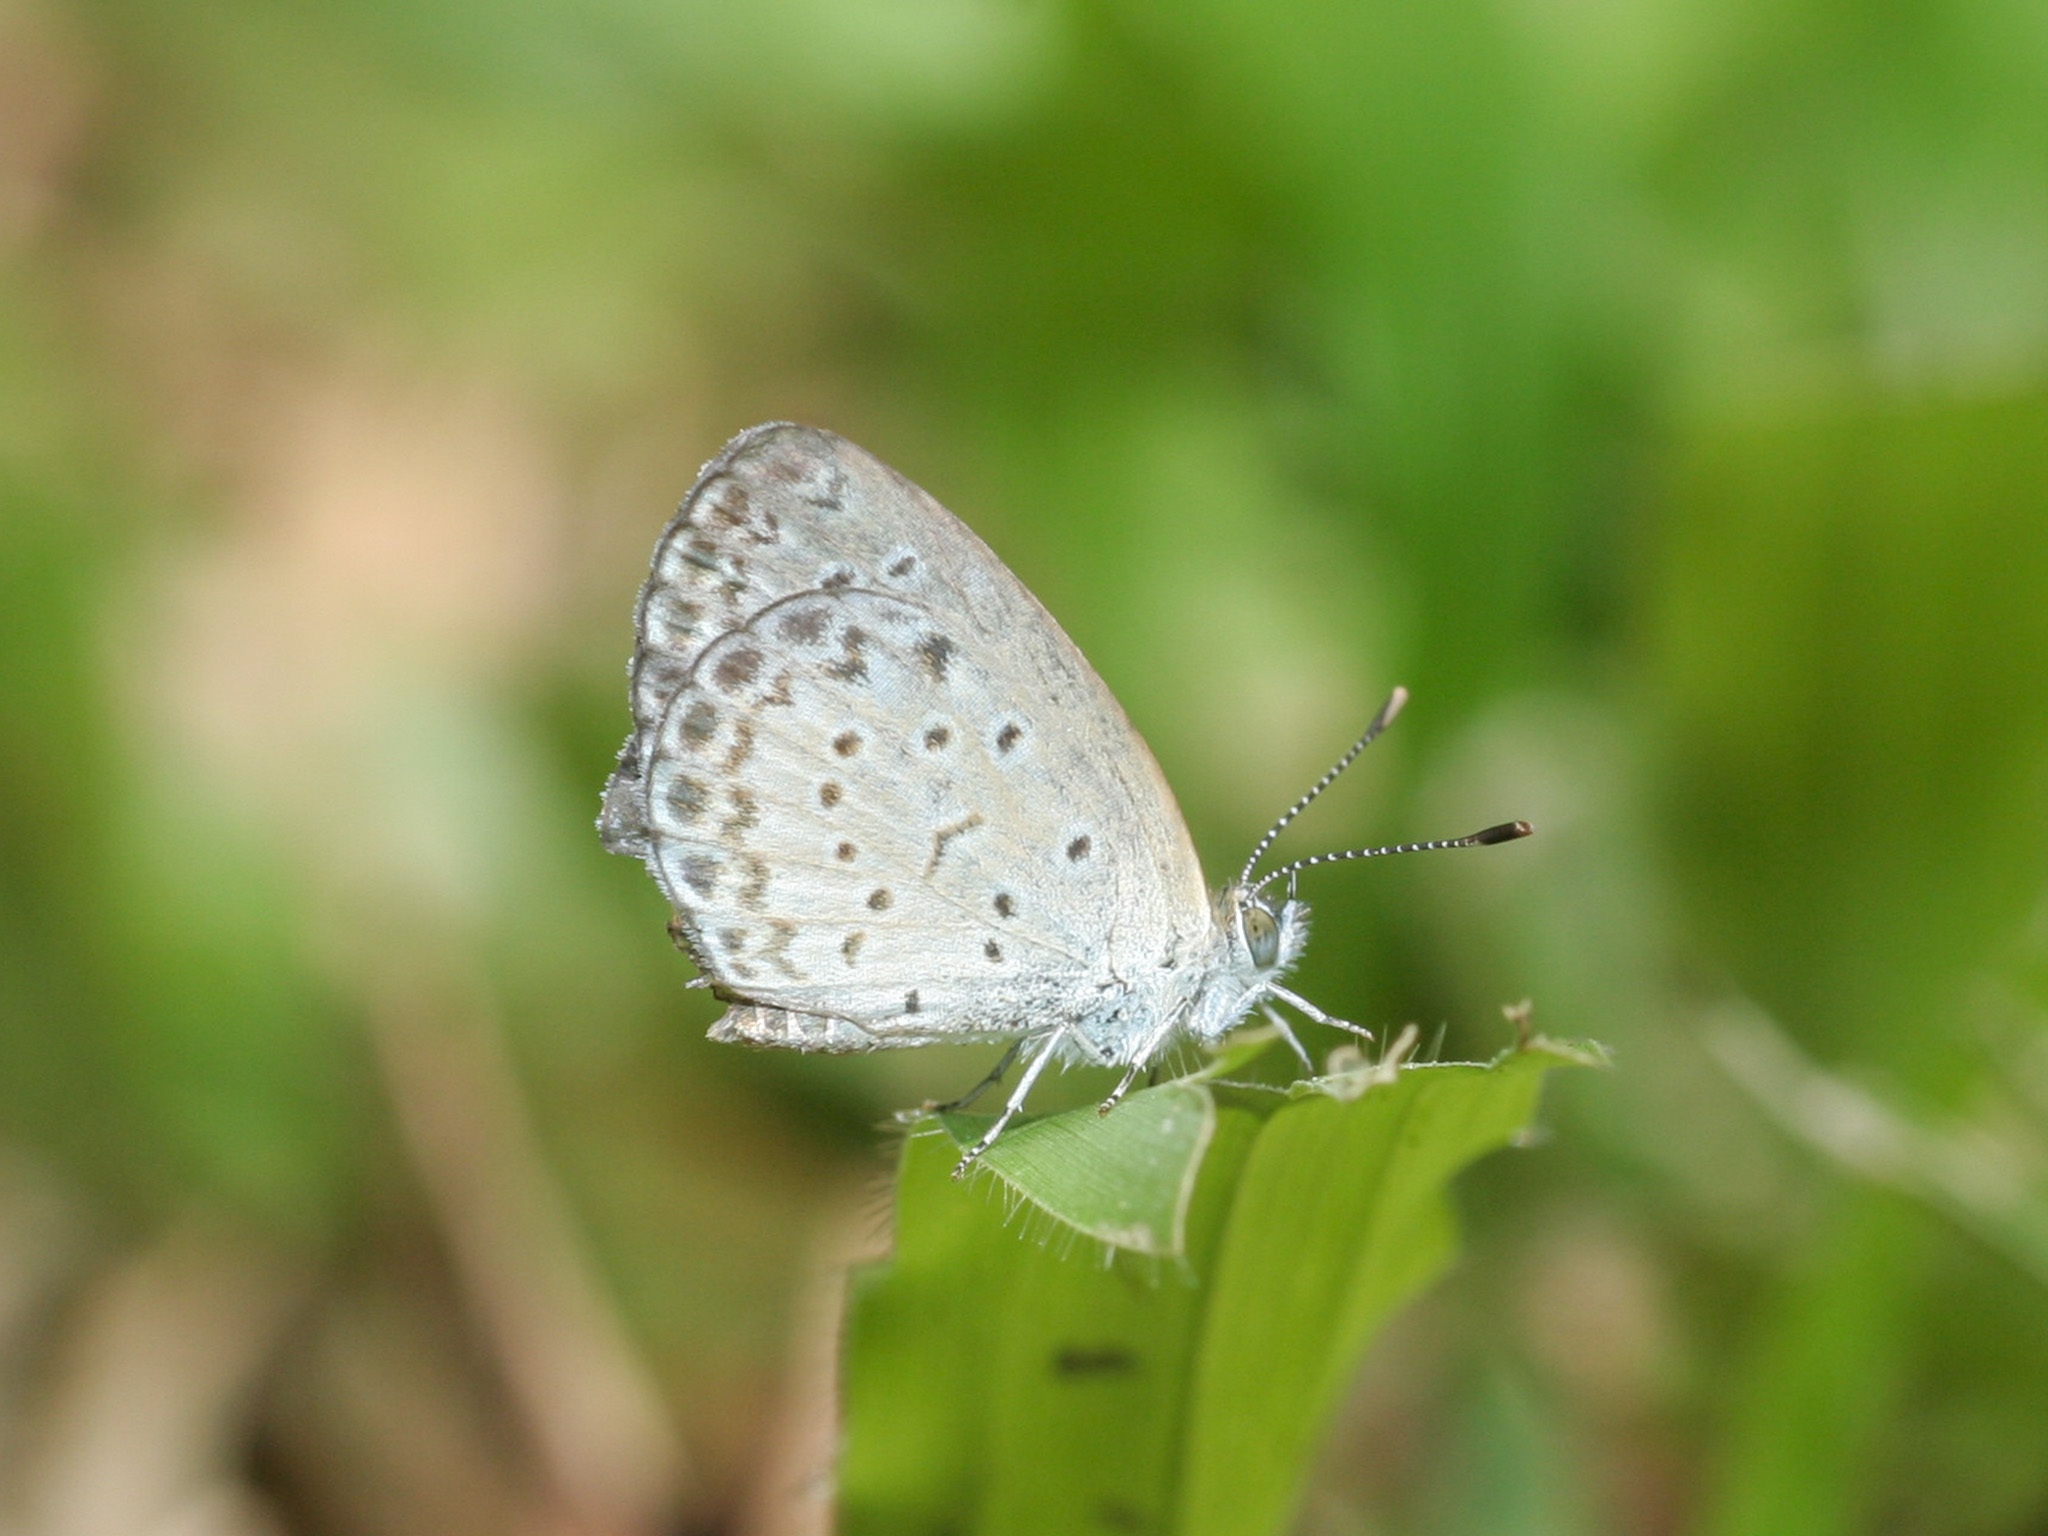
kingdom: Animalia
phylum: Arthropoda
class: Insecta
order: Lepidoptera
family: Lycaenidae
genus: Pseudozizeeria
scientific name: Pseudozizeeria maha
